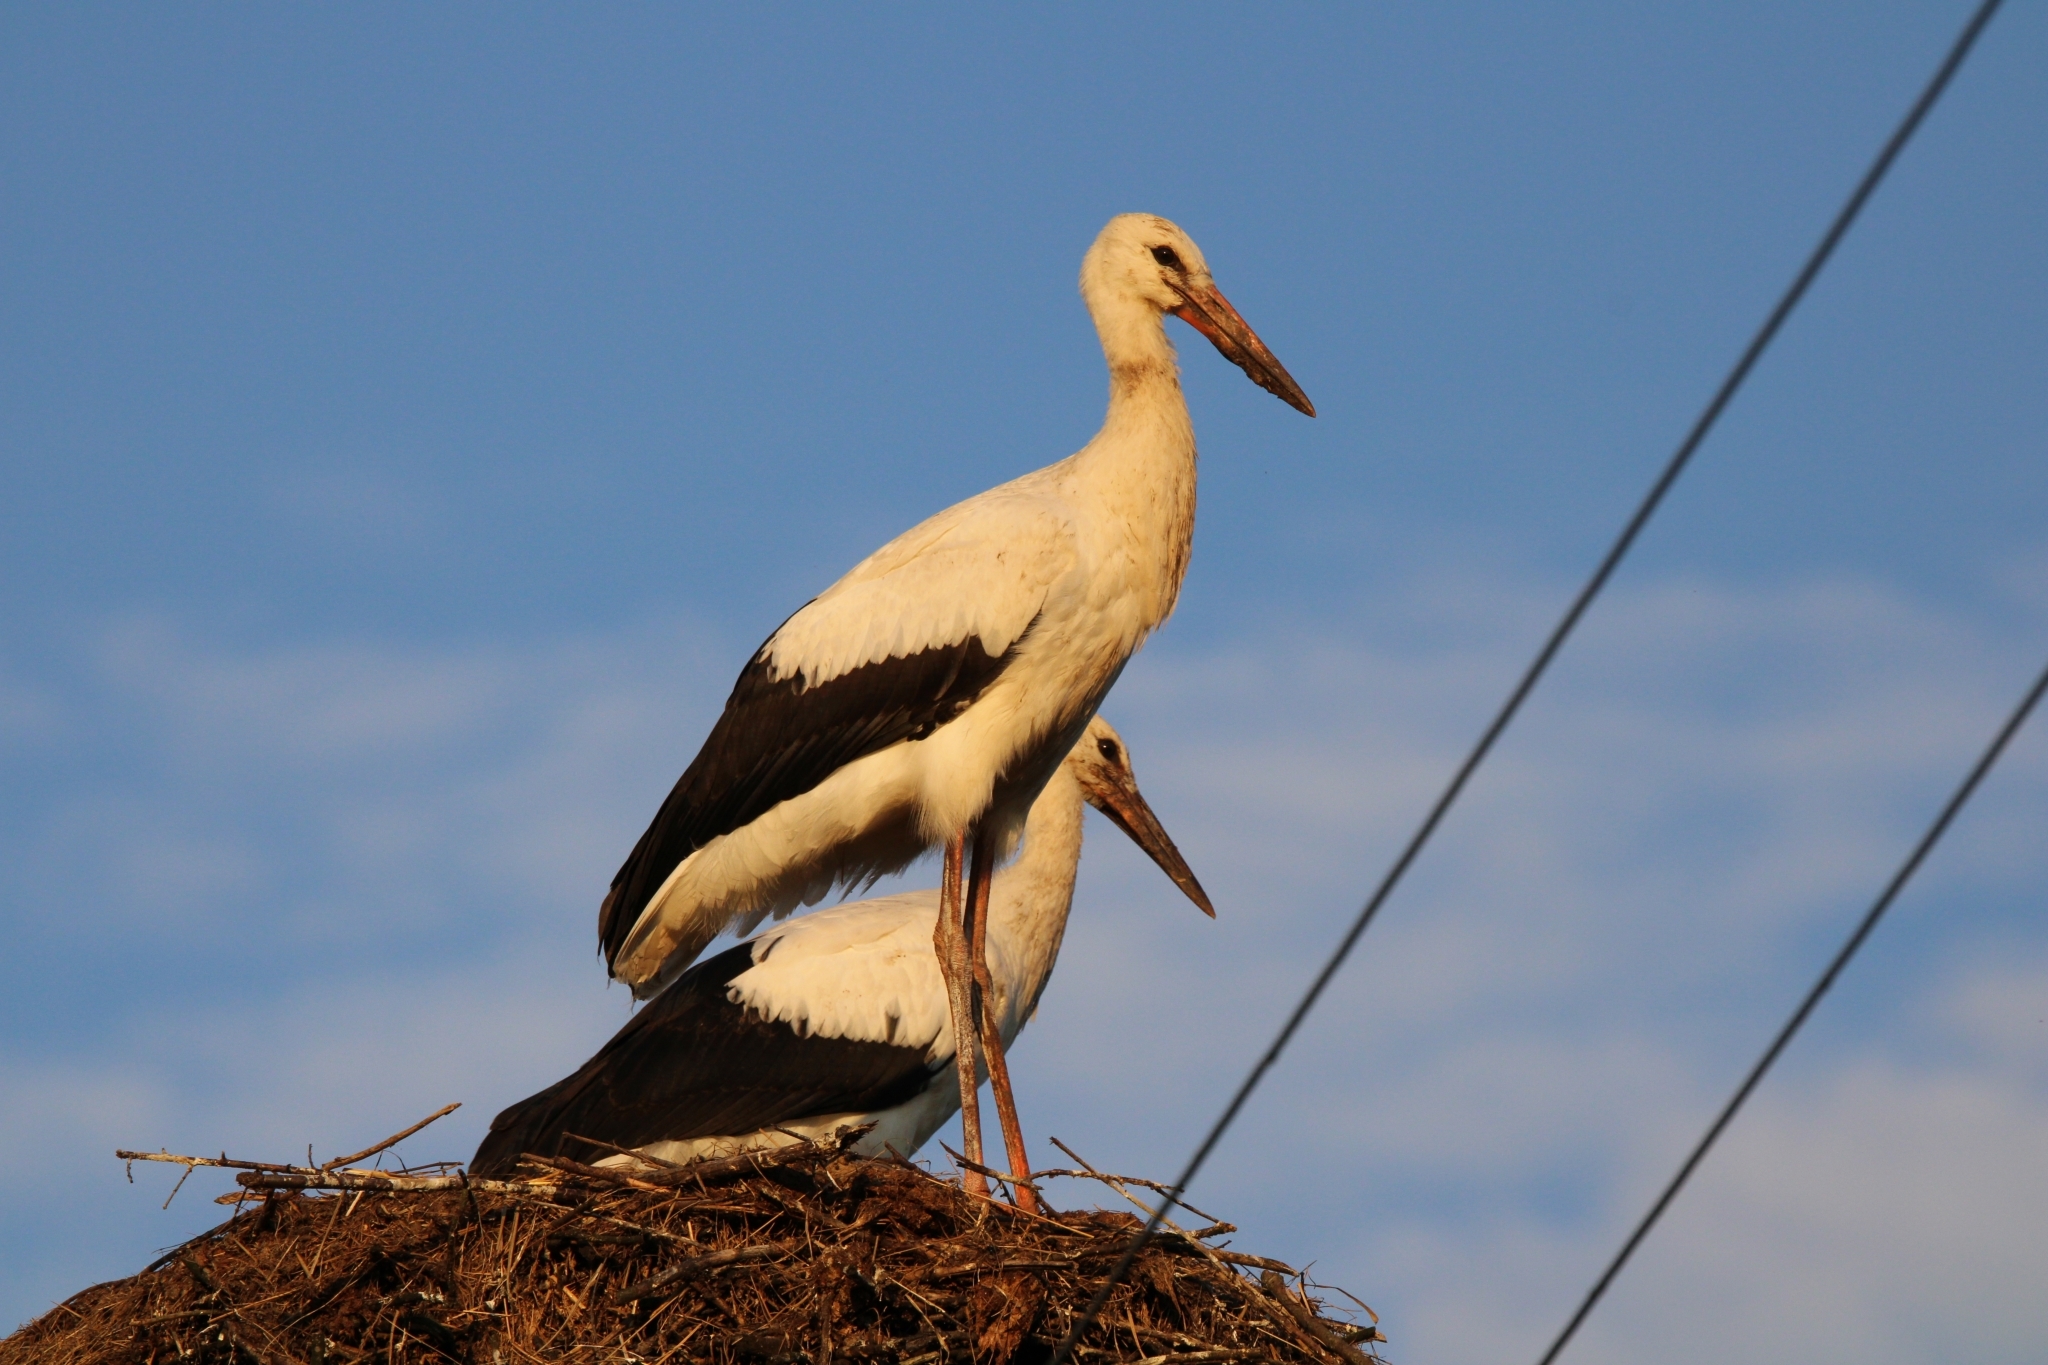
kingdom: Animalia
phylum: Chordata
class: Aves
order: Ciconiiformes
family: Ciconiidae
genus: Ciconia
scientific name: Ciconia ciconia
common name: White stork
